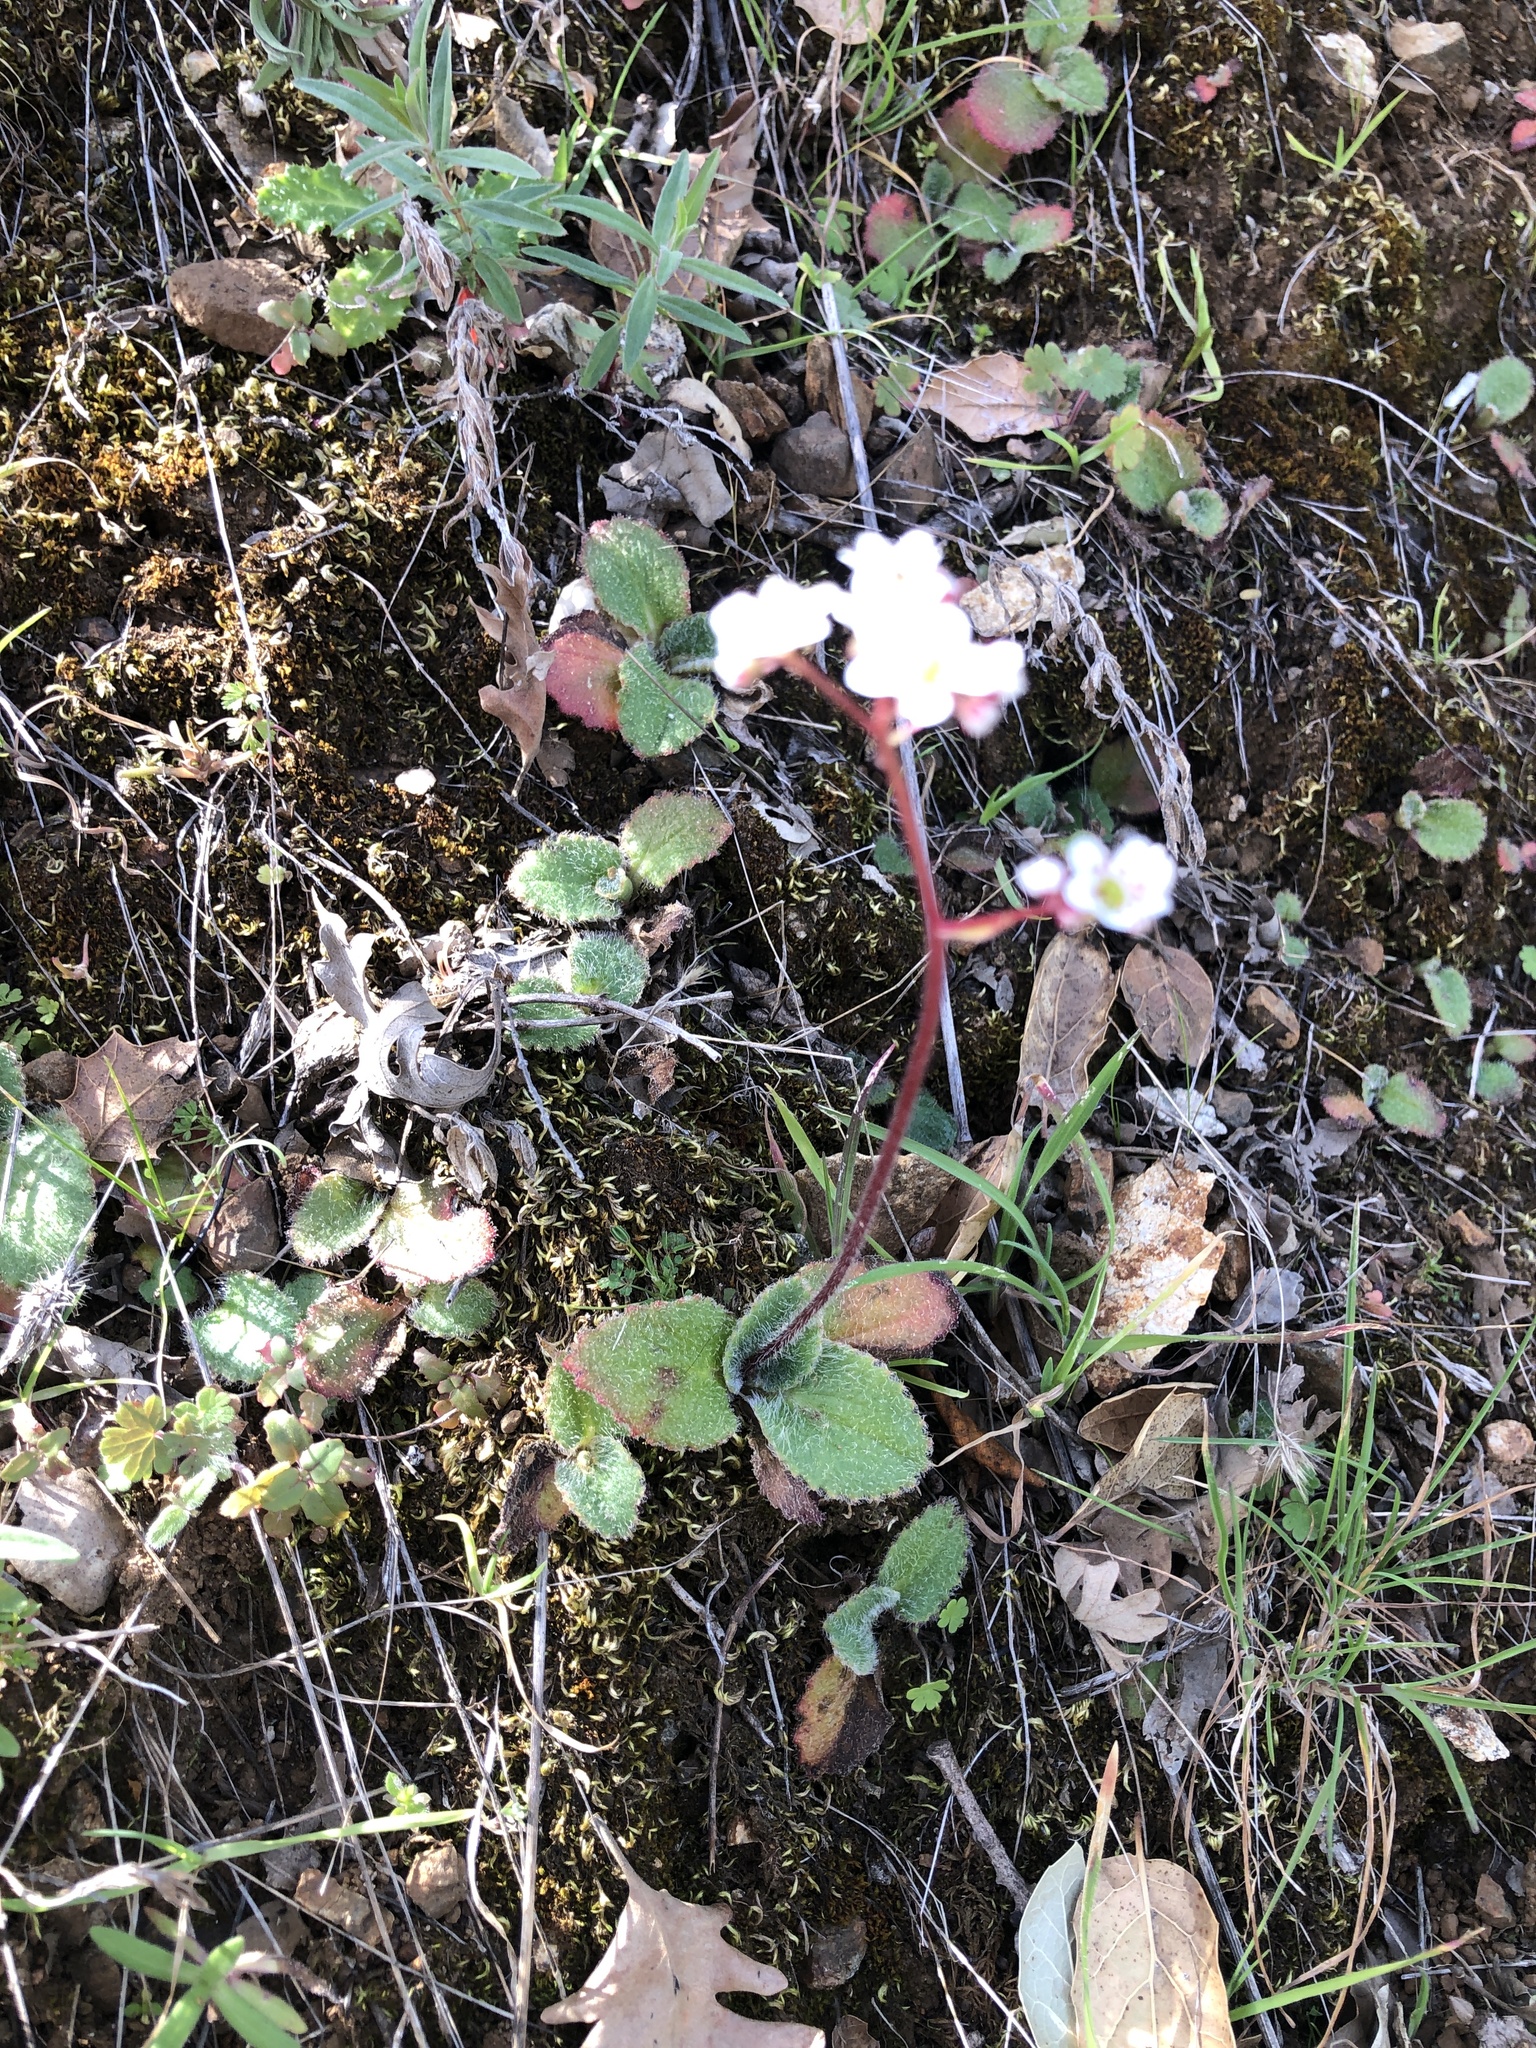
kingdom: Plantae
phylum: Tracheophyta
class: Magnoliopsida
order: Saxifragales
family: Saxifragaceae
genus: Micranthes
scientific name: Micranthes californica
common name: California saxifrage
